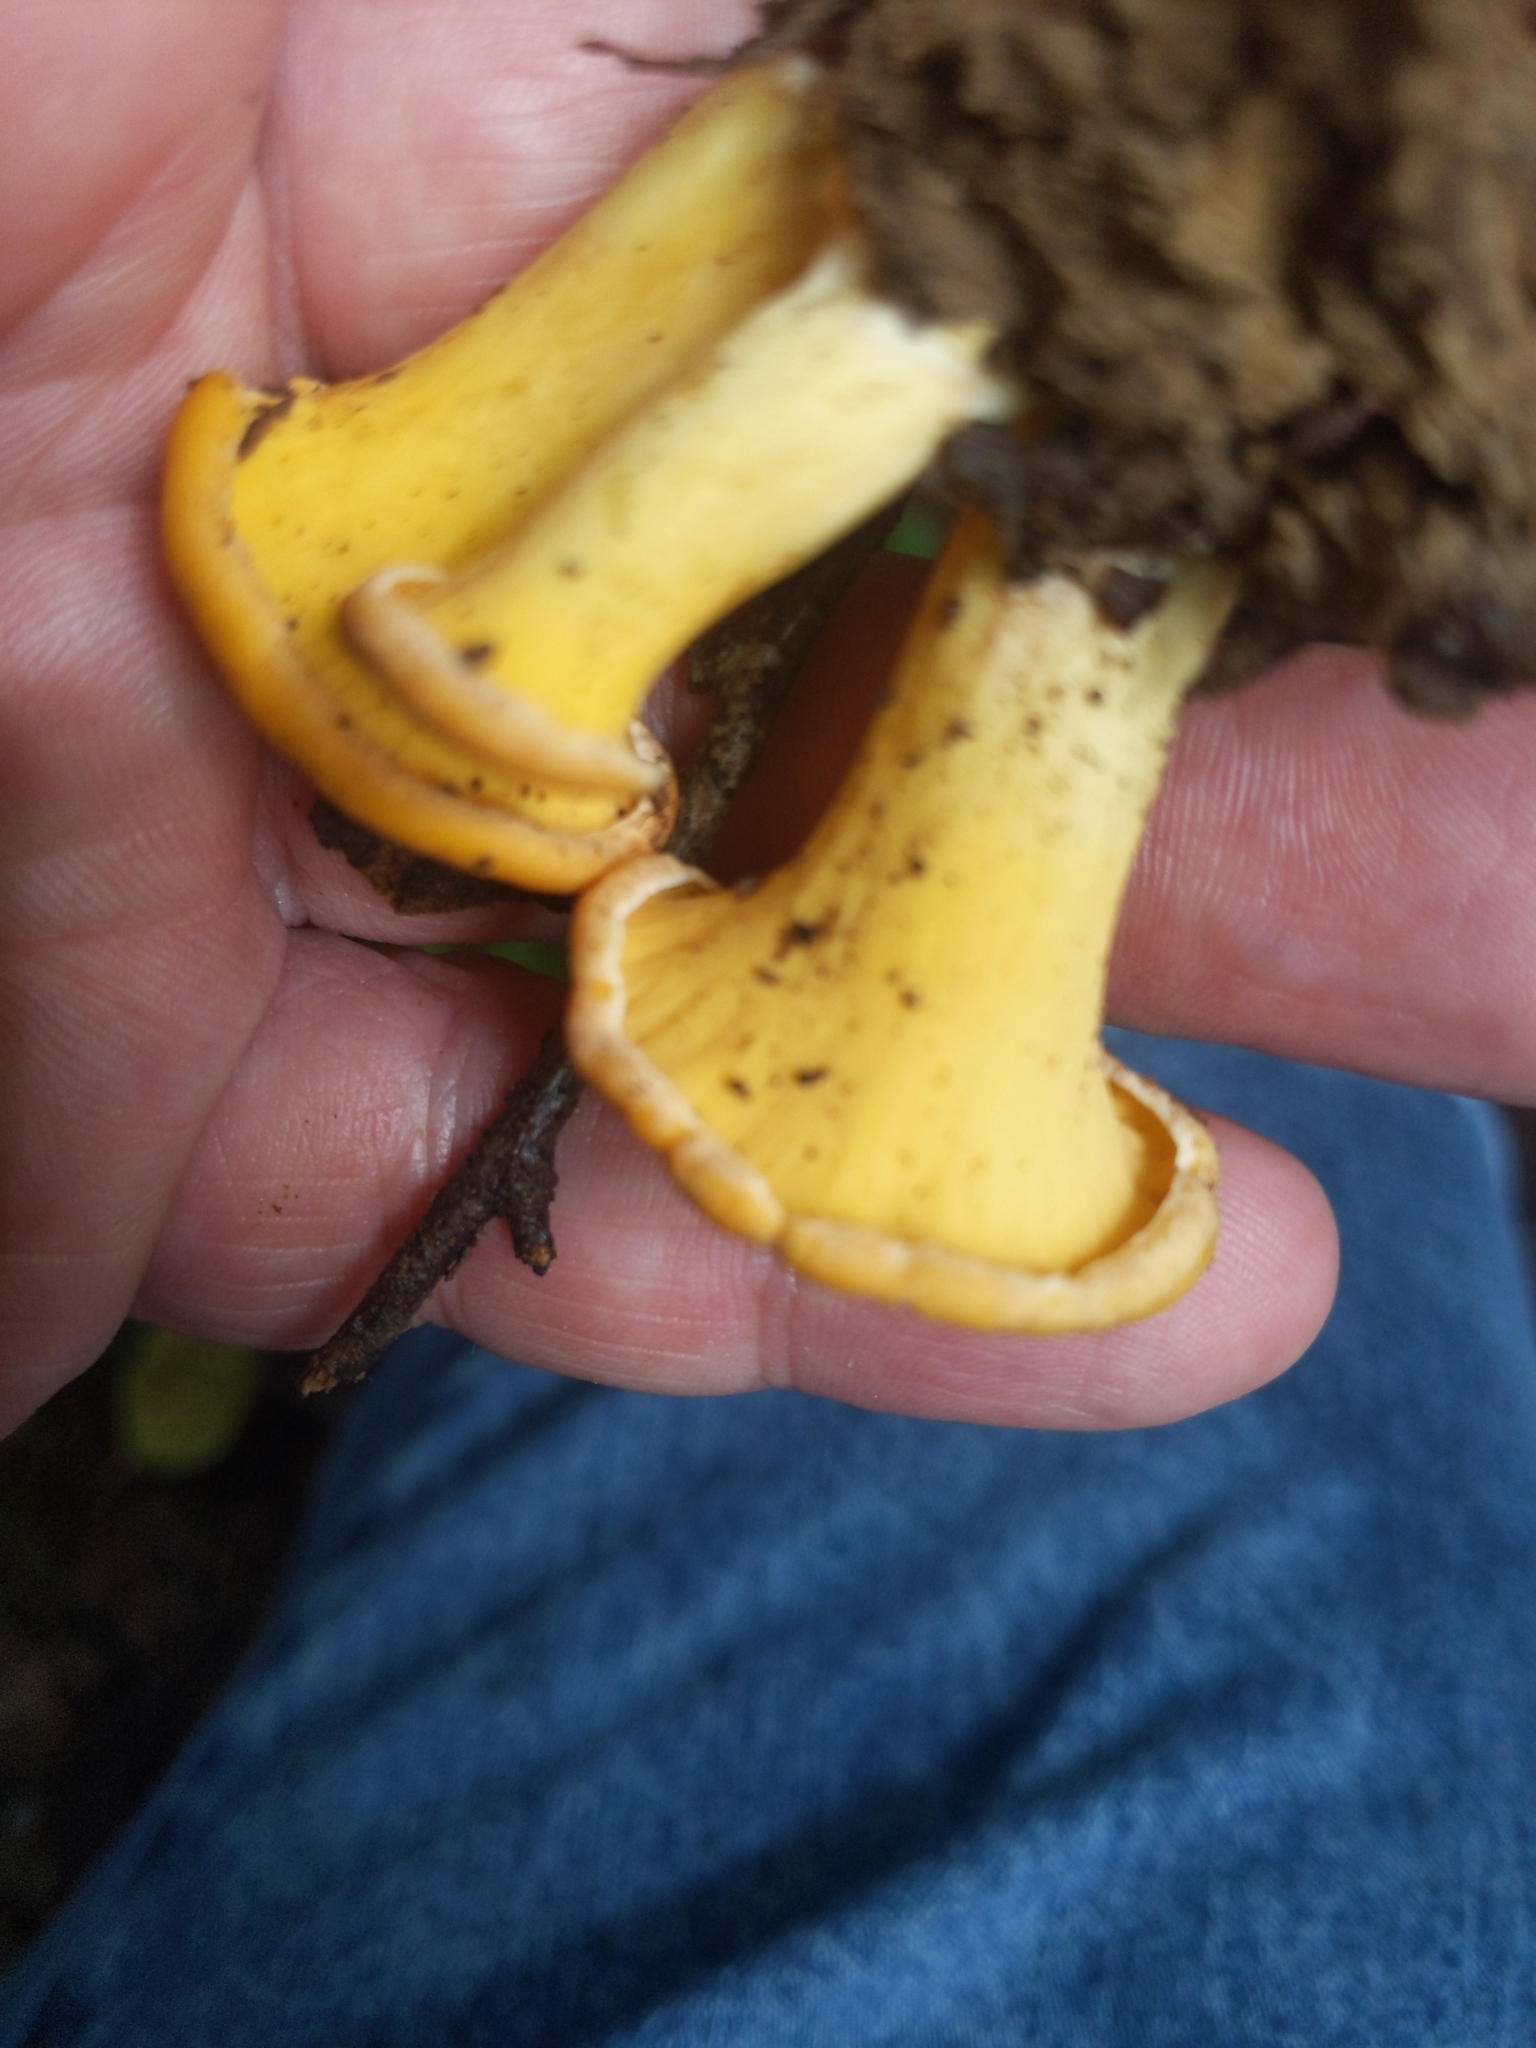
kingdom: Fungi
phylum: Basidiomycota
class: Agaricomycetes
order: Cantharellales
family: Hydnaceae
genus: Cantharellus
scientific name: Cantharellus minor
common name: Small chanterelle
